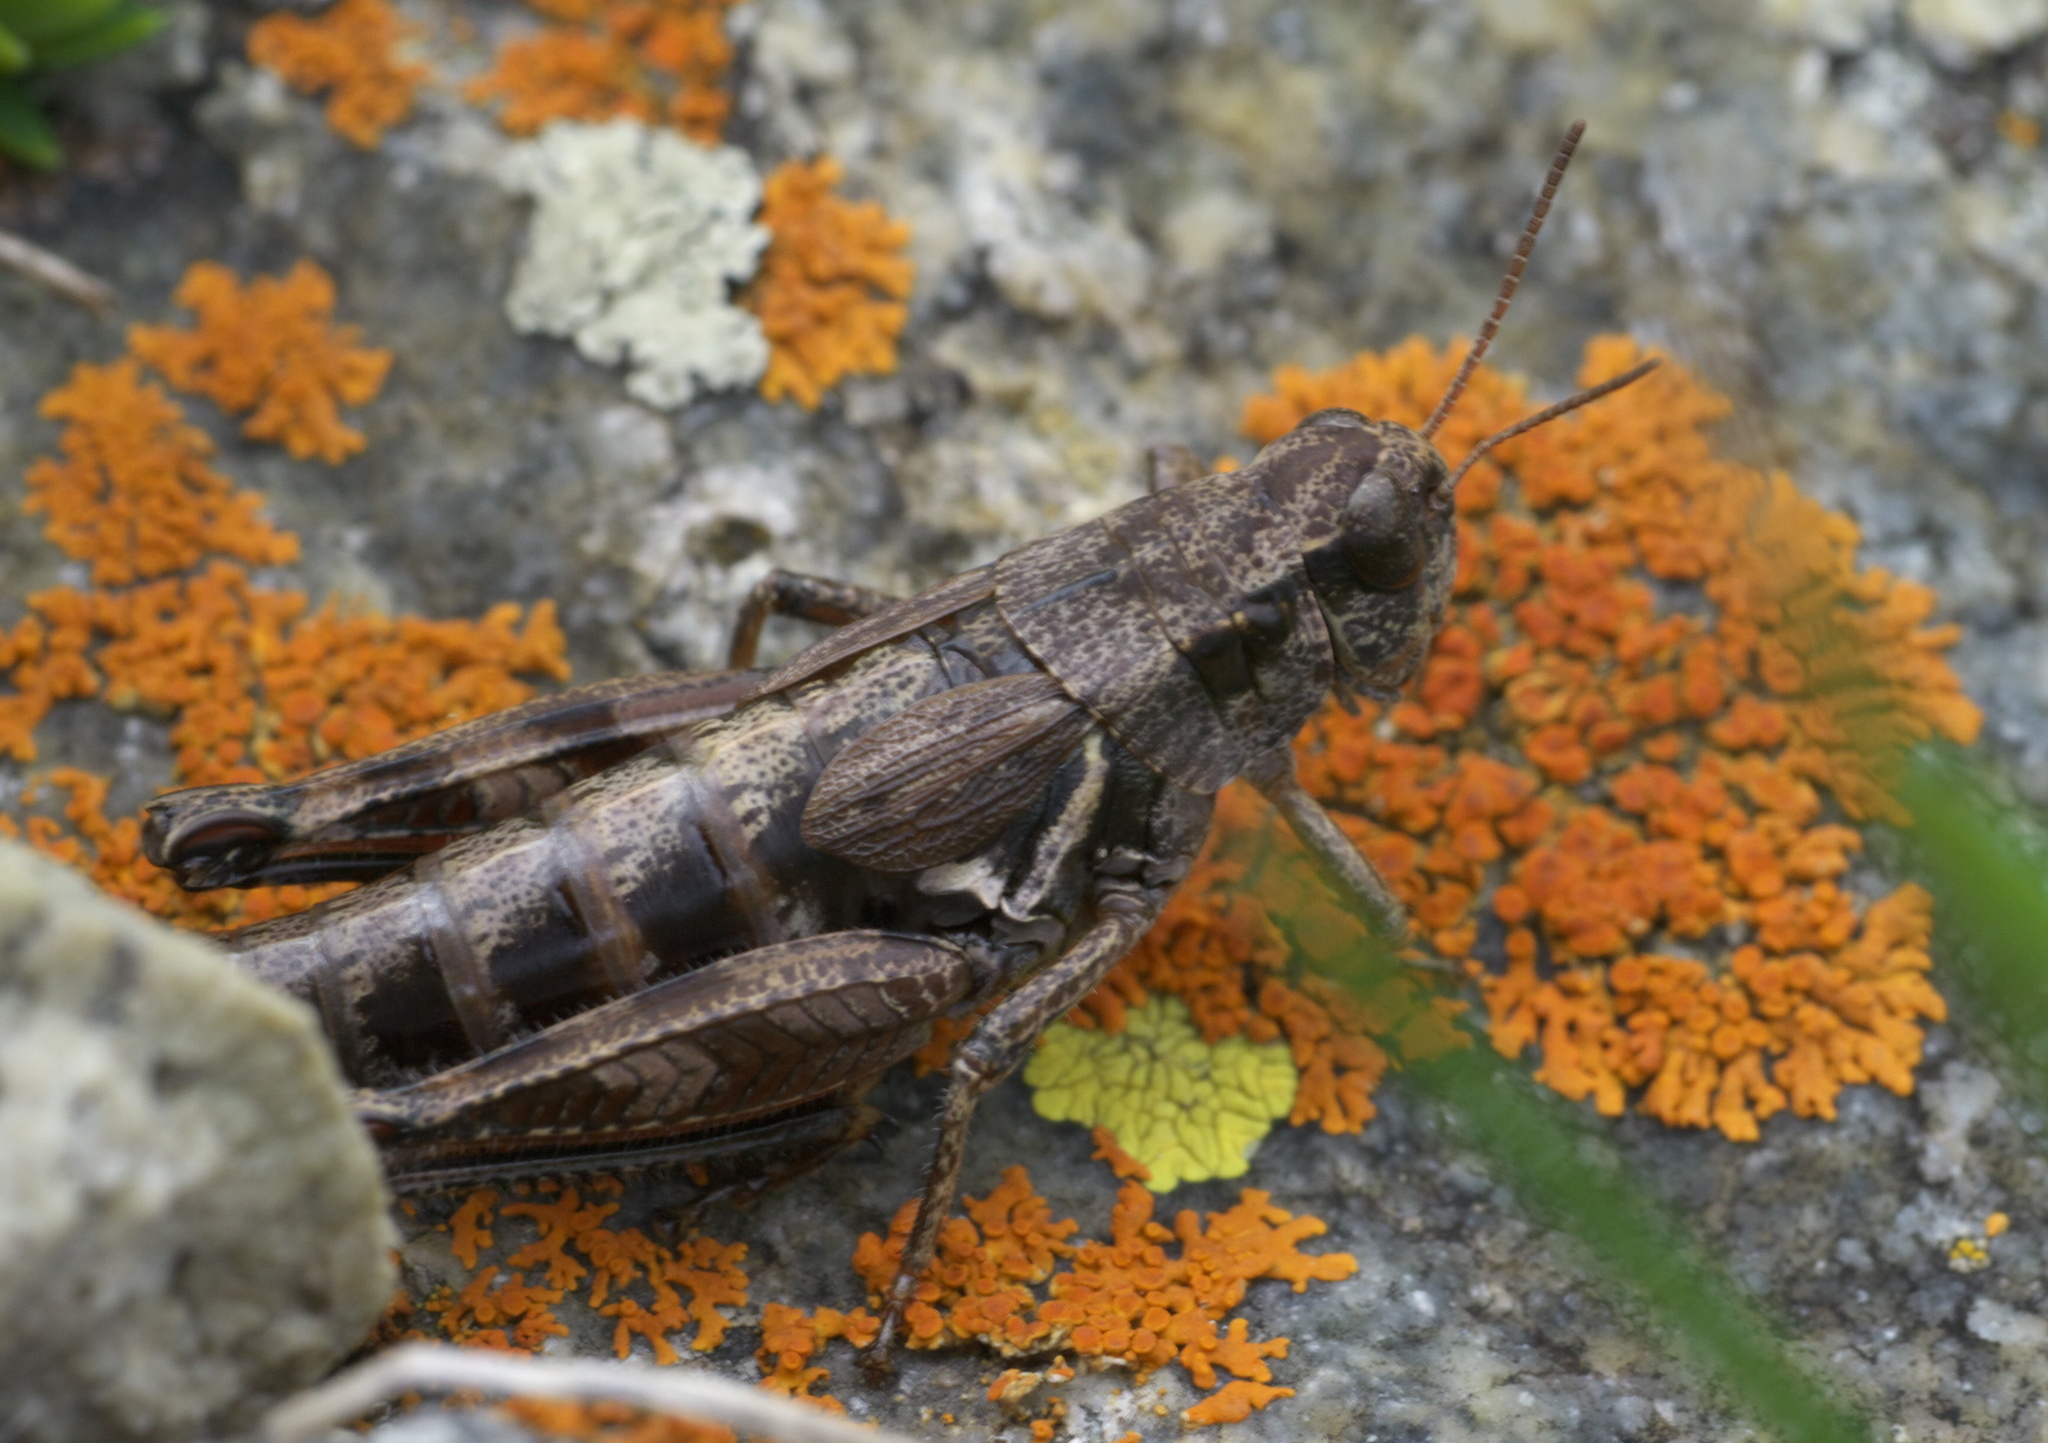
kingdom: Animalia
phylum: Arthropoda
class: Insecta
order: Orthoptera
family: Acrididae
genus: Melanoplus
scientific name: Melanoplus oregonensis
